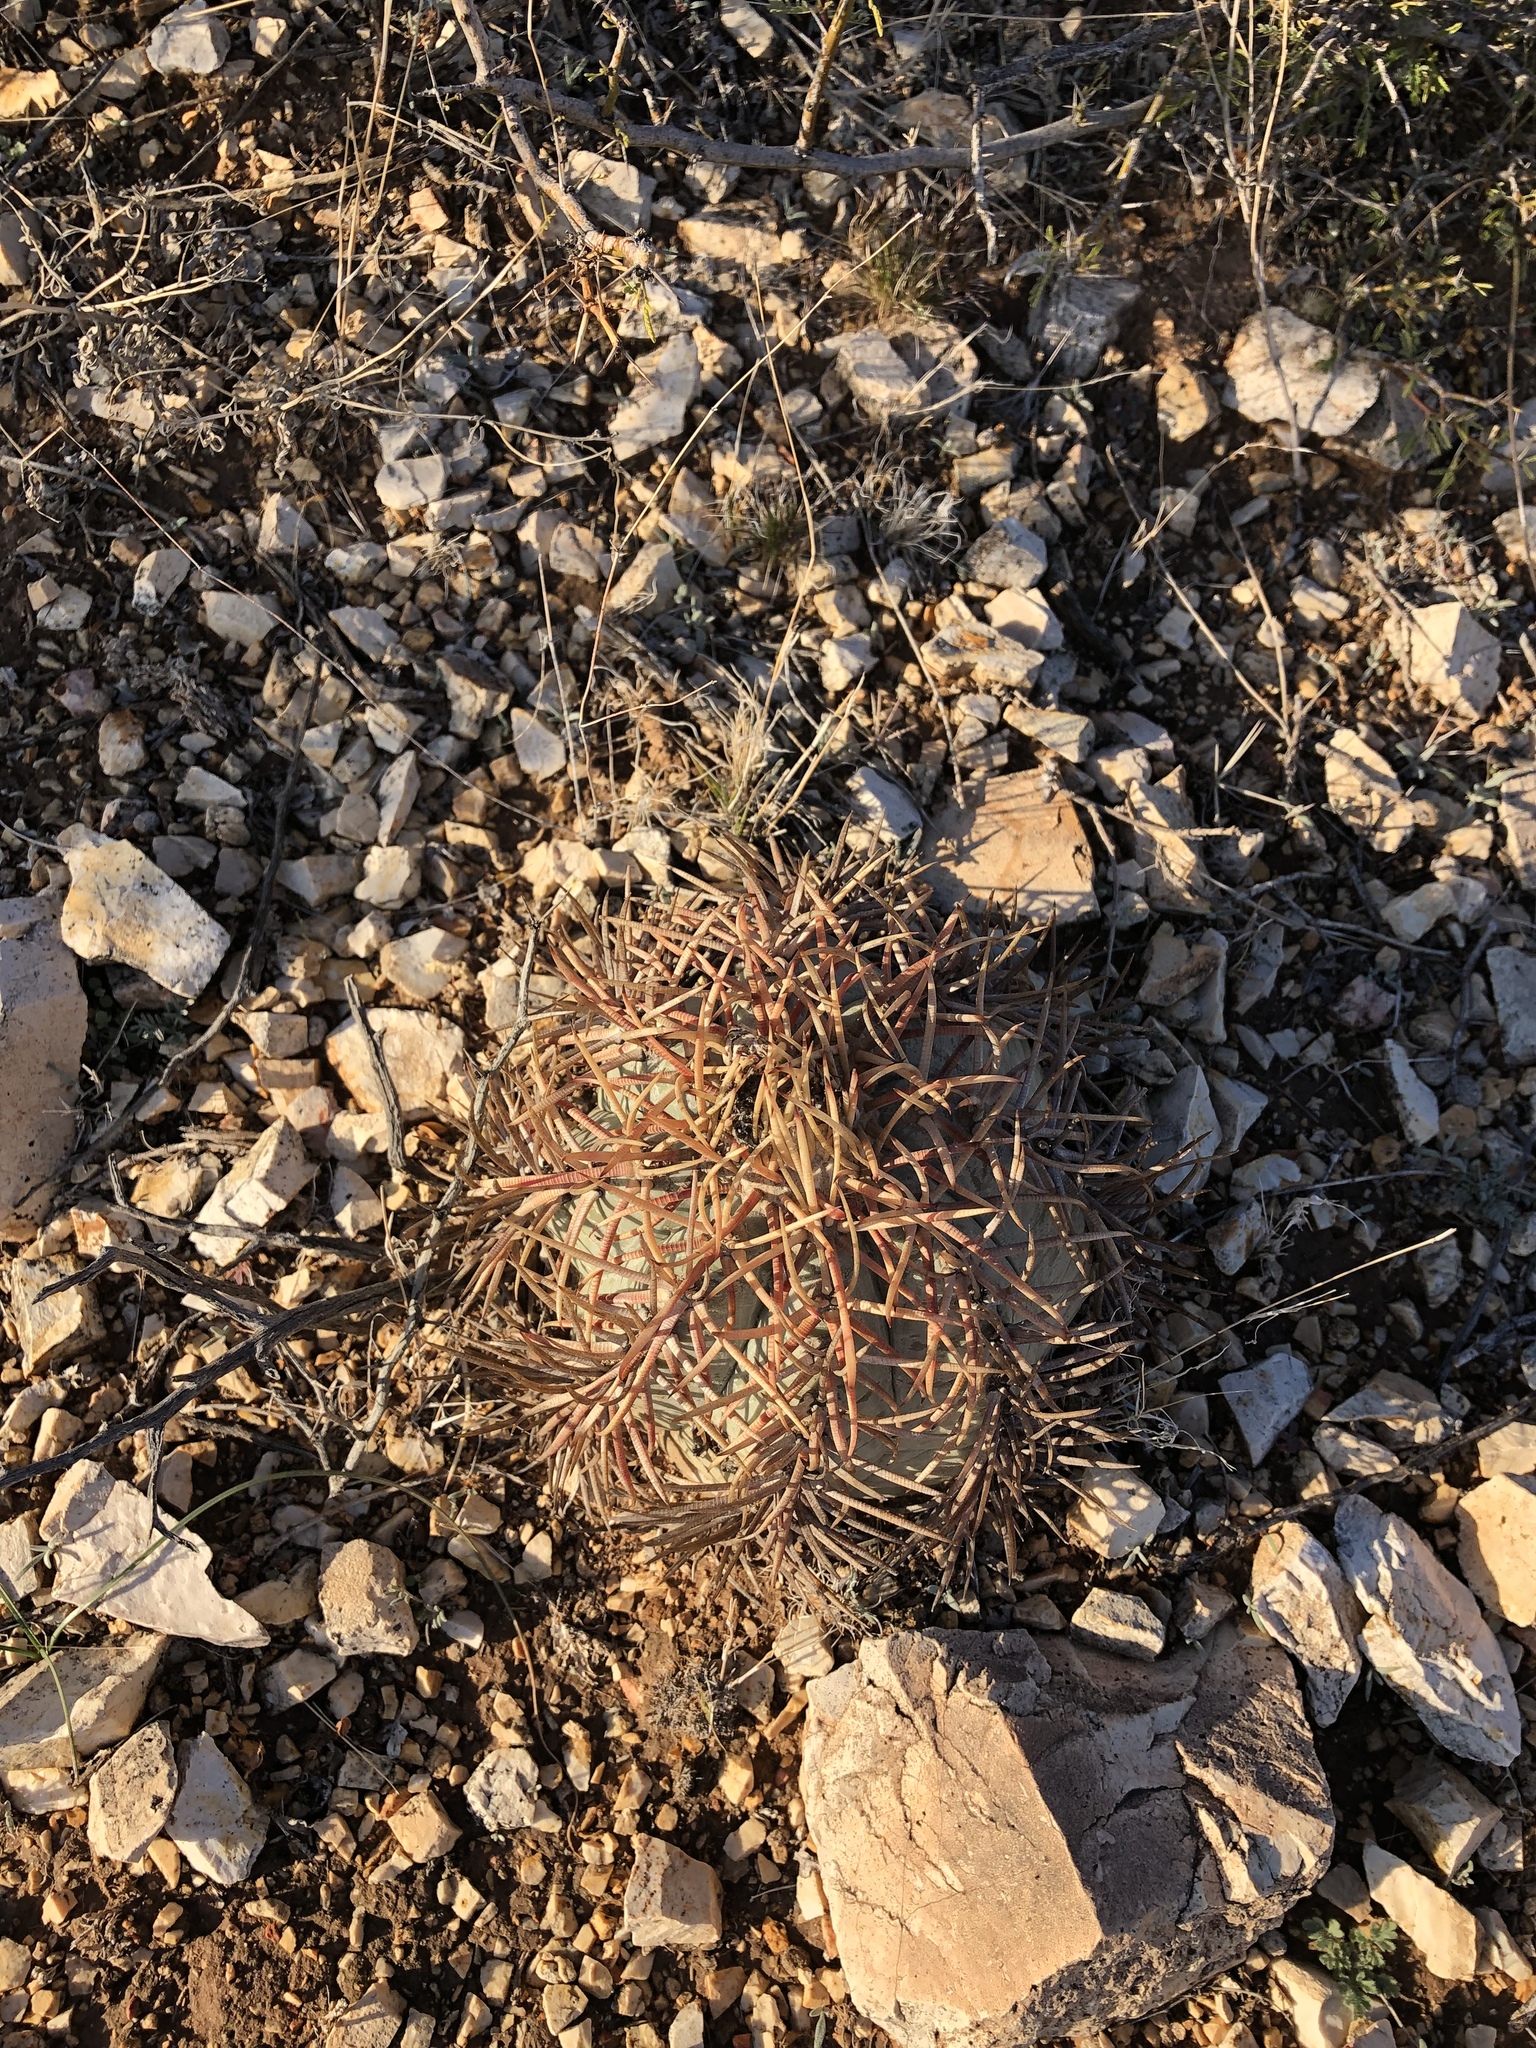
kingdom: Plantae
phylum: Tracheophyta
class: Magnoliopsida
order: Caryophyllales
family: Cactaceae
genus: Echinocactus
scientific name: Echinocactus horizonthalonius
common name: Devilshead
